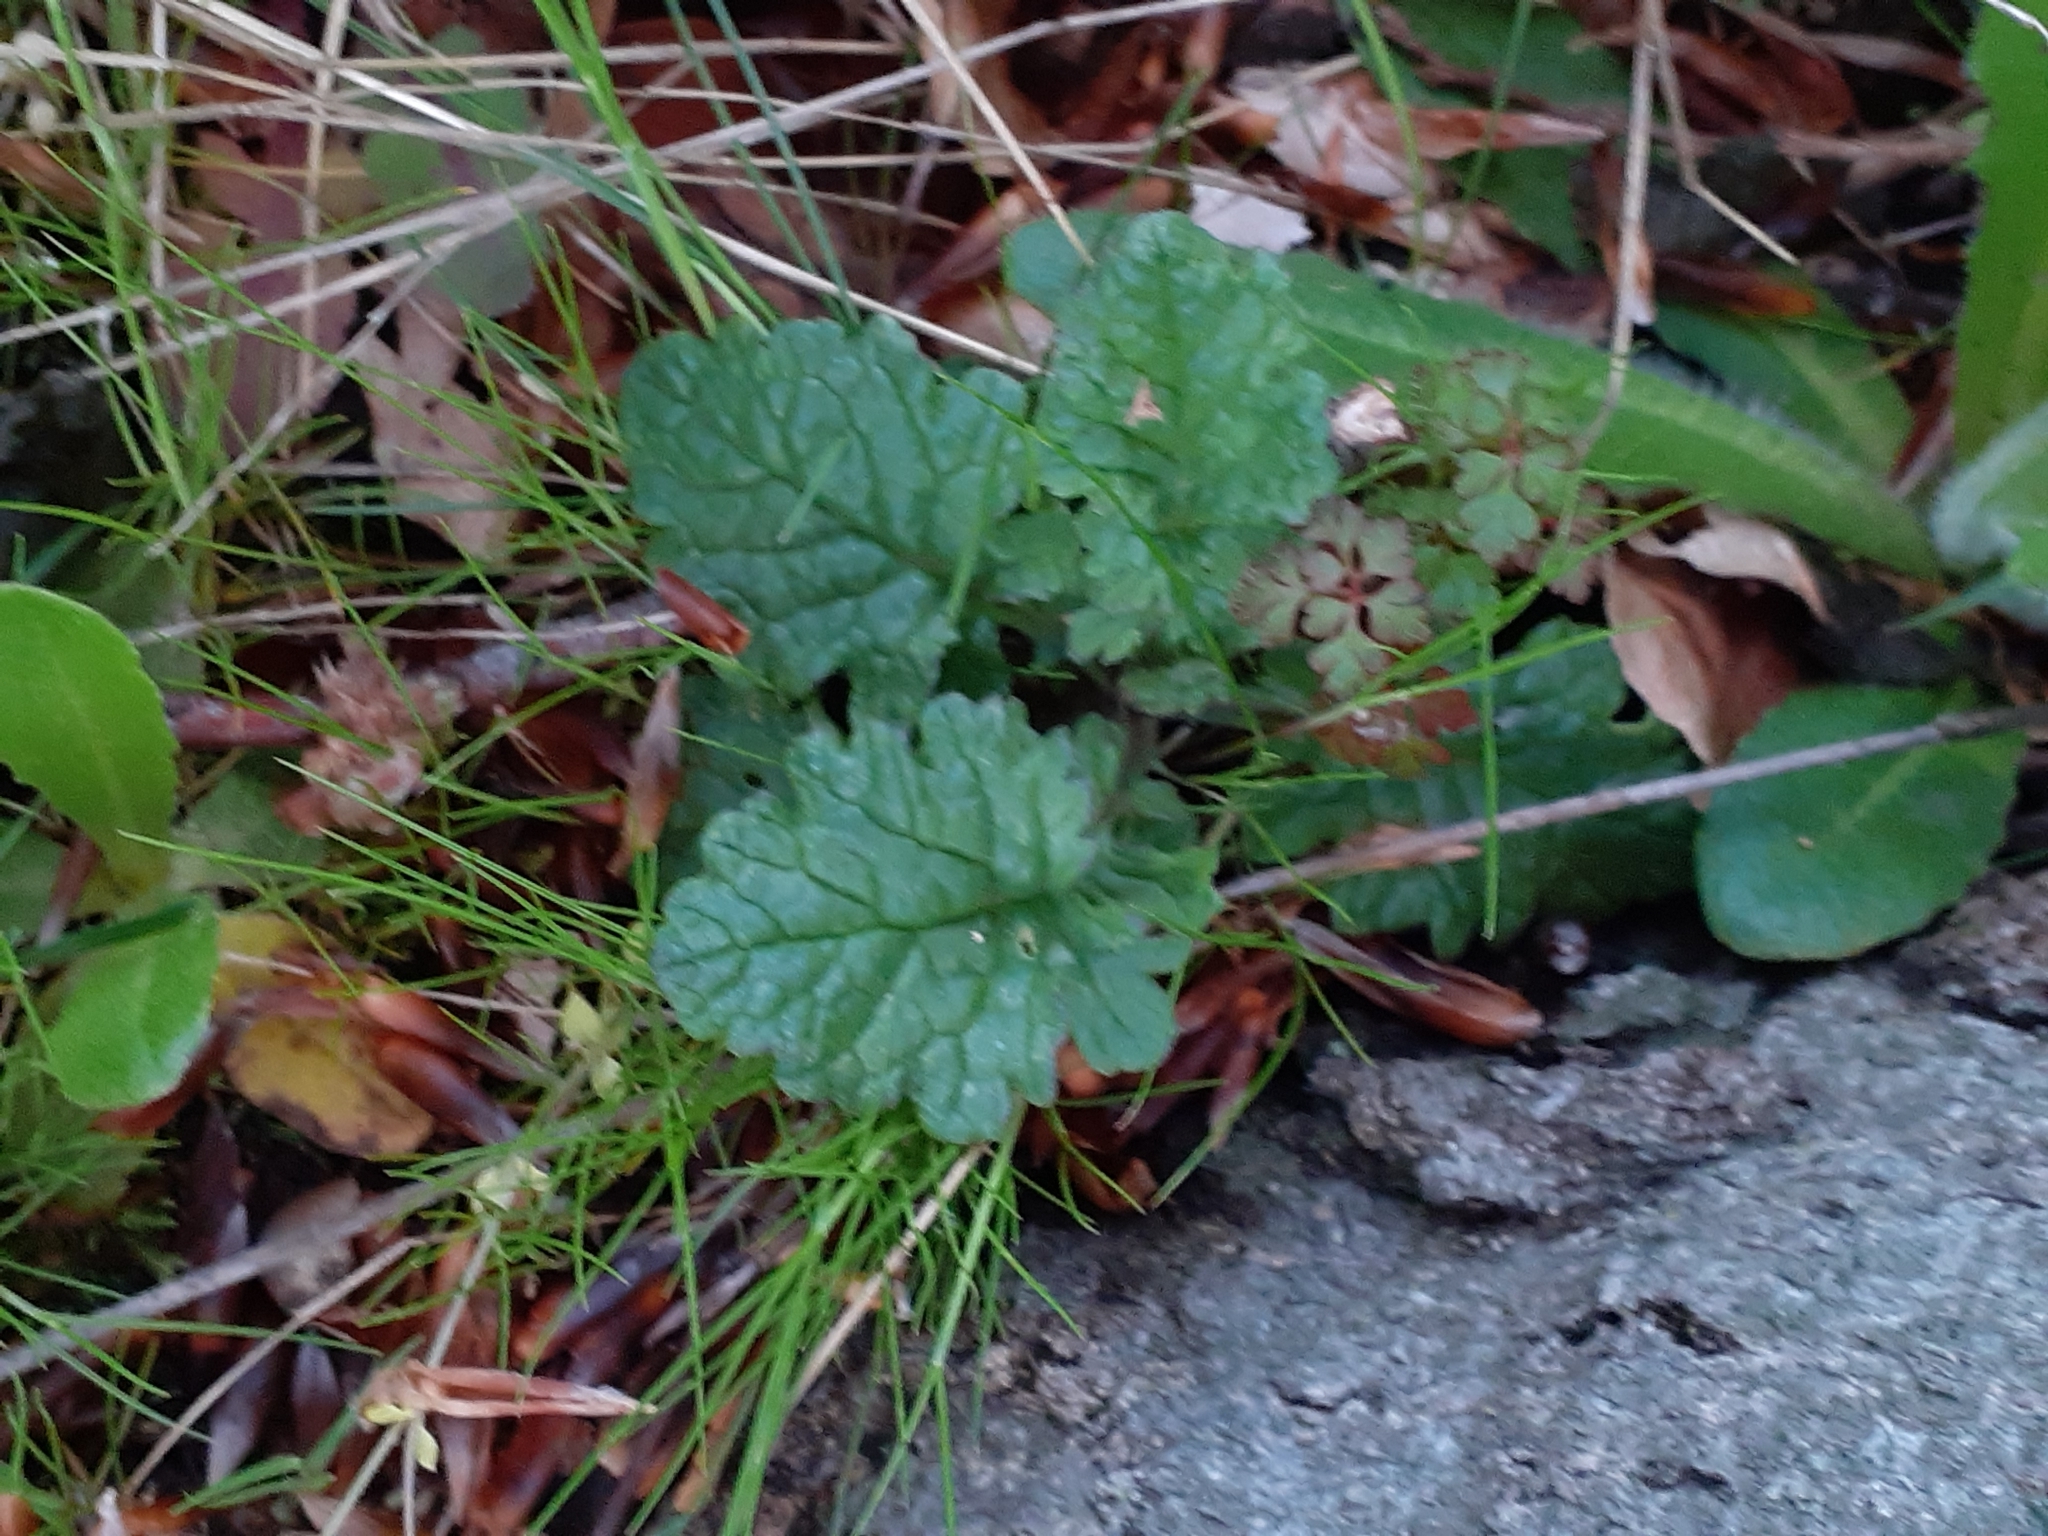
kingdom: Plantae
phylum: Tracheophyta
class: Magnoliopsida
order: Asterales
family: Asteraceae
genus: Jacobaea
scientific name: Jacobaea vulgaris
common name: Stinking willie
